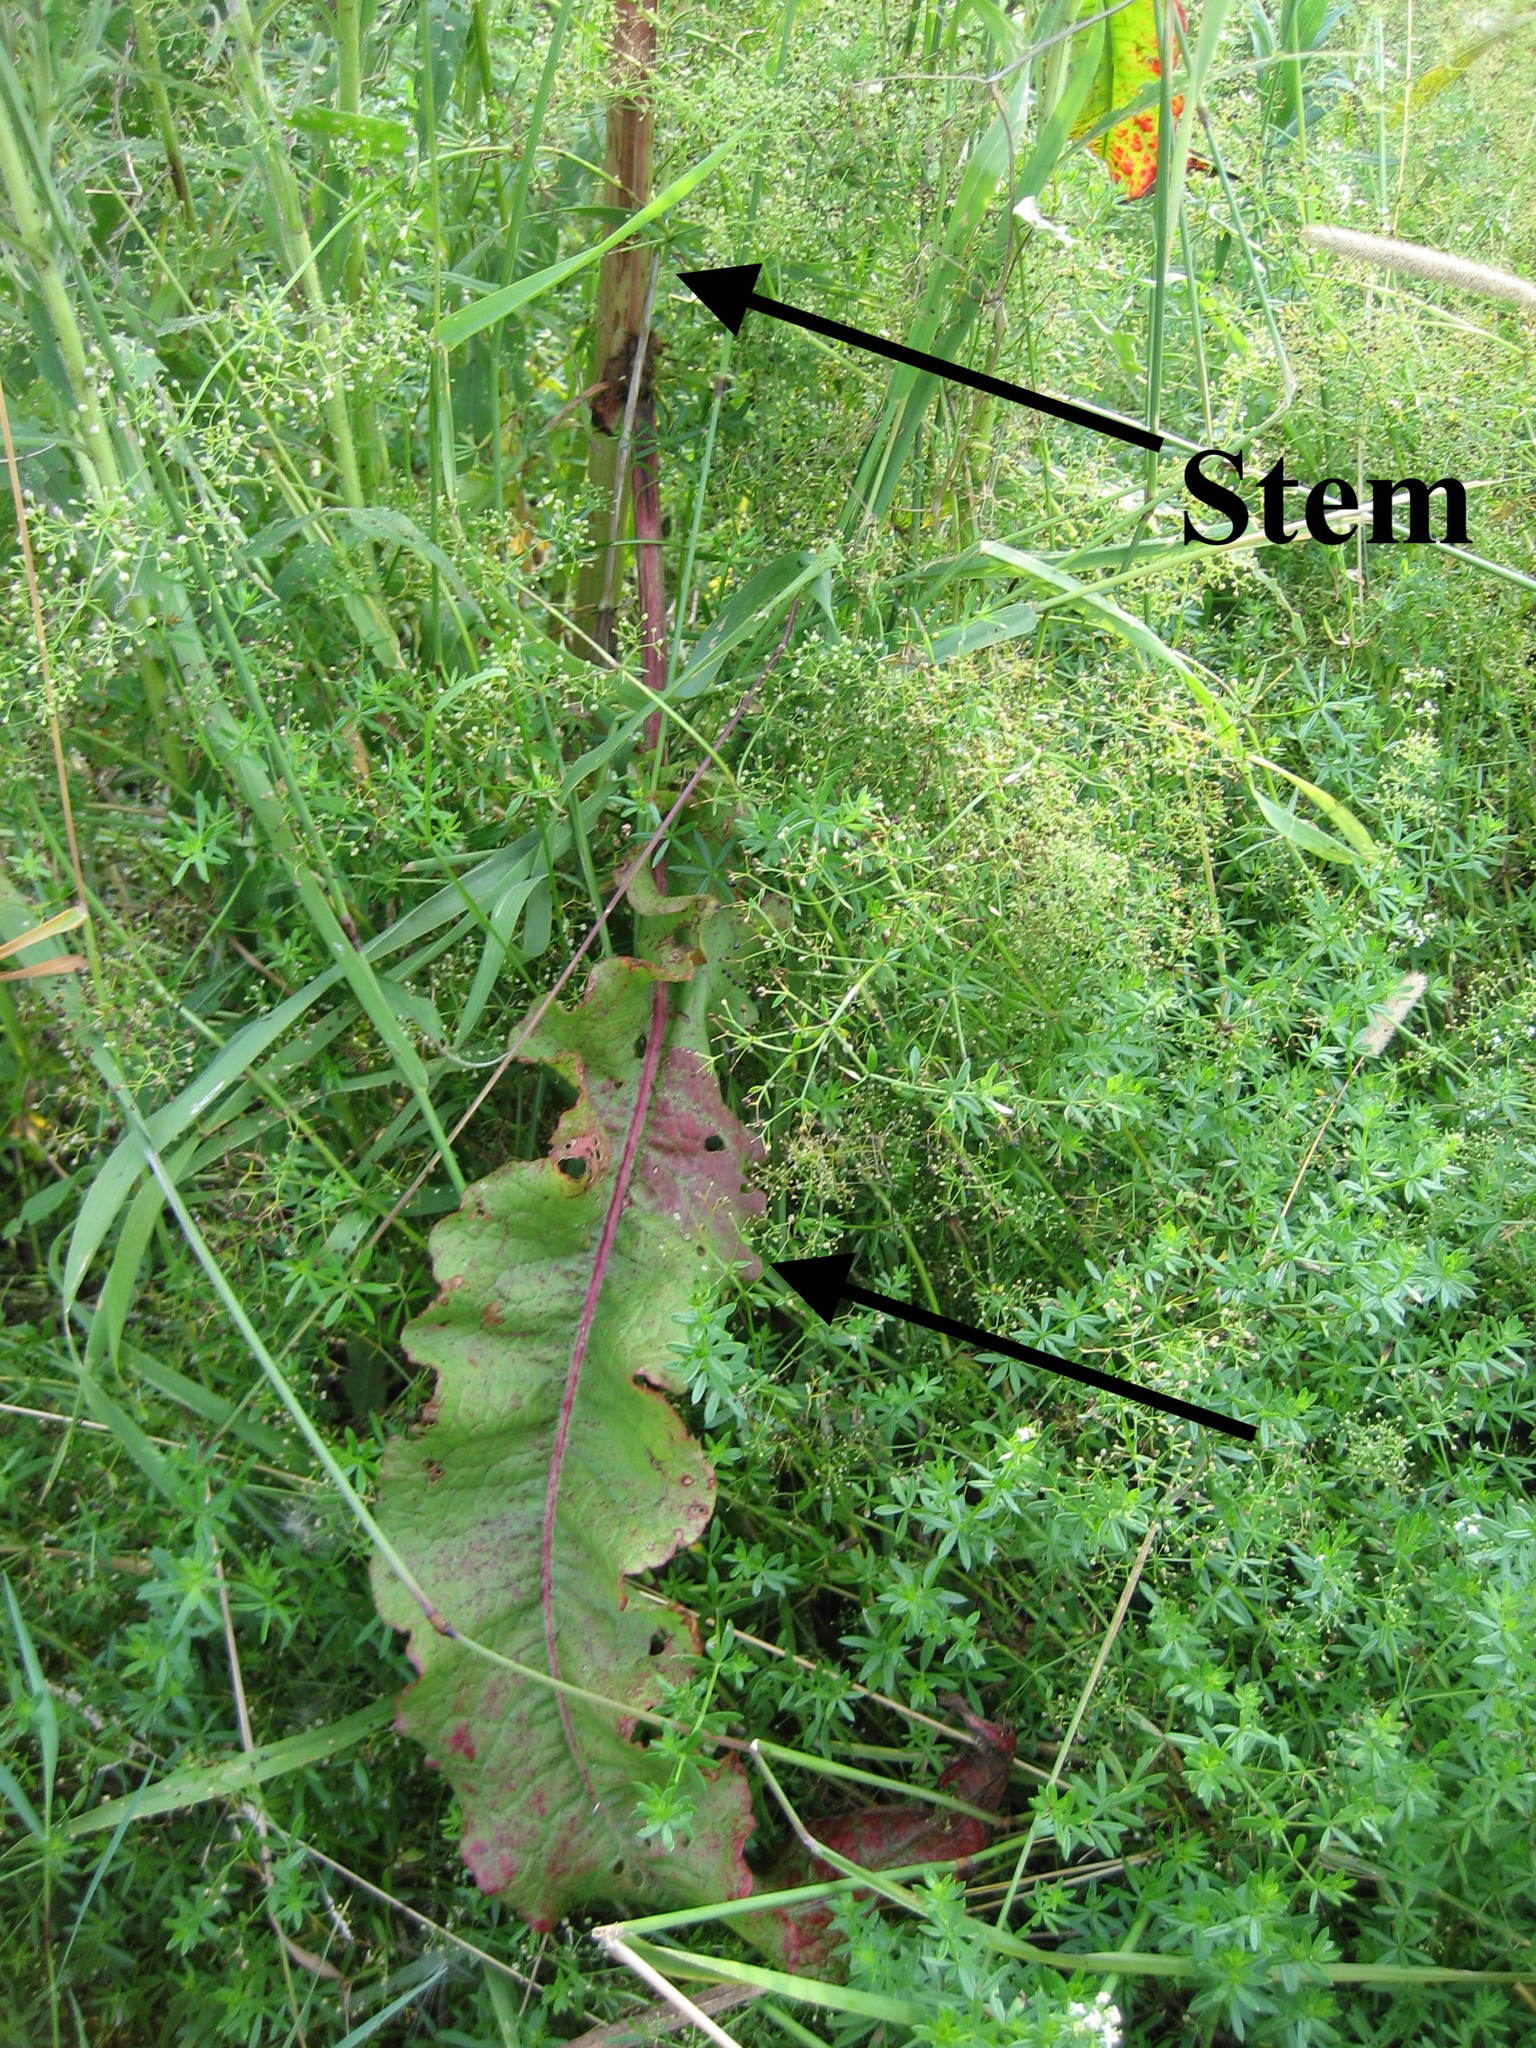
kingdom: Plantae
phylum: Tracheophyta
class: Magnoliopsida
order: Caryophyllales
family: Polygonaceae
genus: Rumex
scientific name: Rumex crispus
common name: Curled dock
